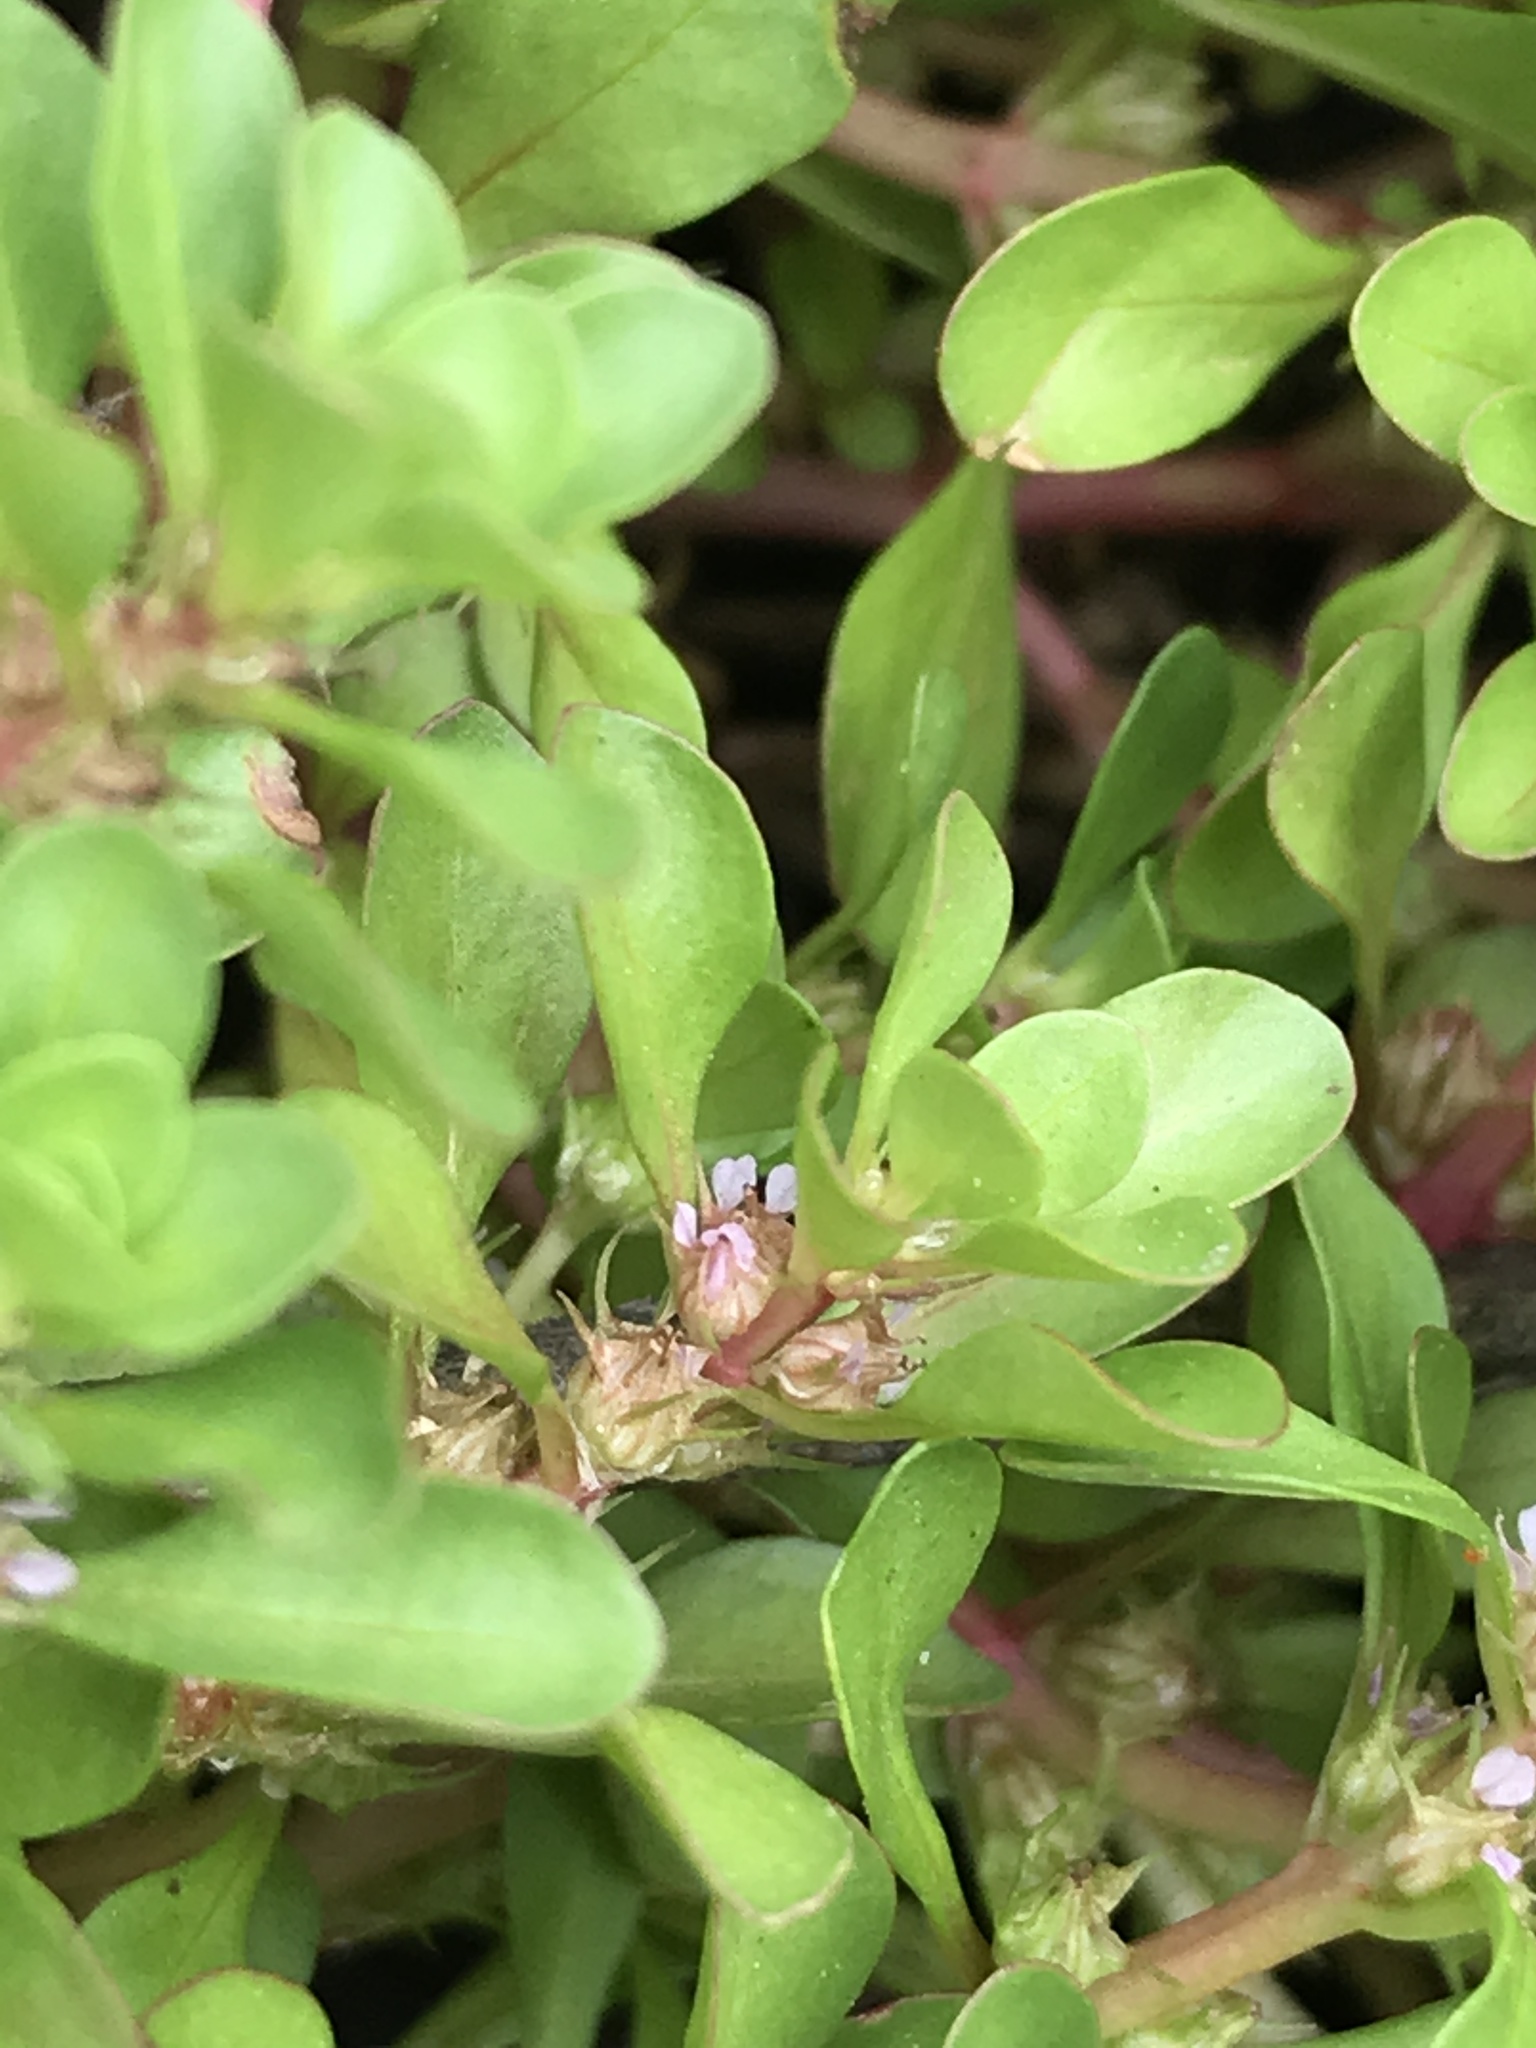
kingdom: Plantae
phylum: Tracheophyta
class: Magnoliopsida
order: Myrtales
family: Lythraceae
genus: Lythrum
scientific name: Lythrum portula
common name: Water purslane
